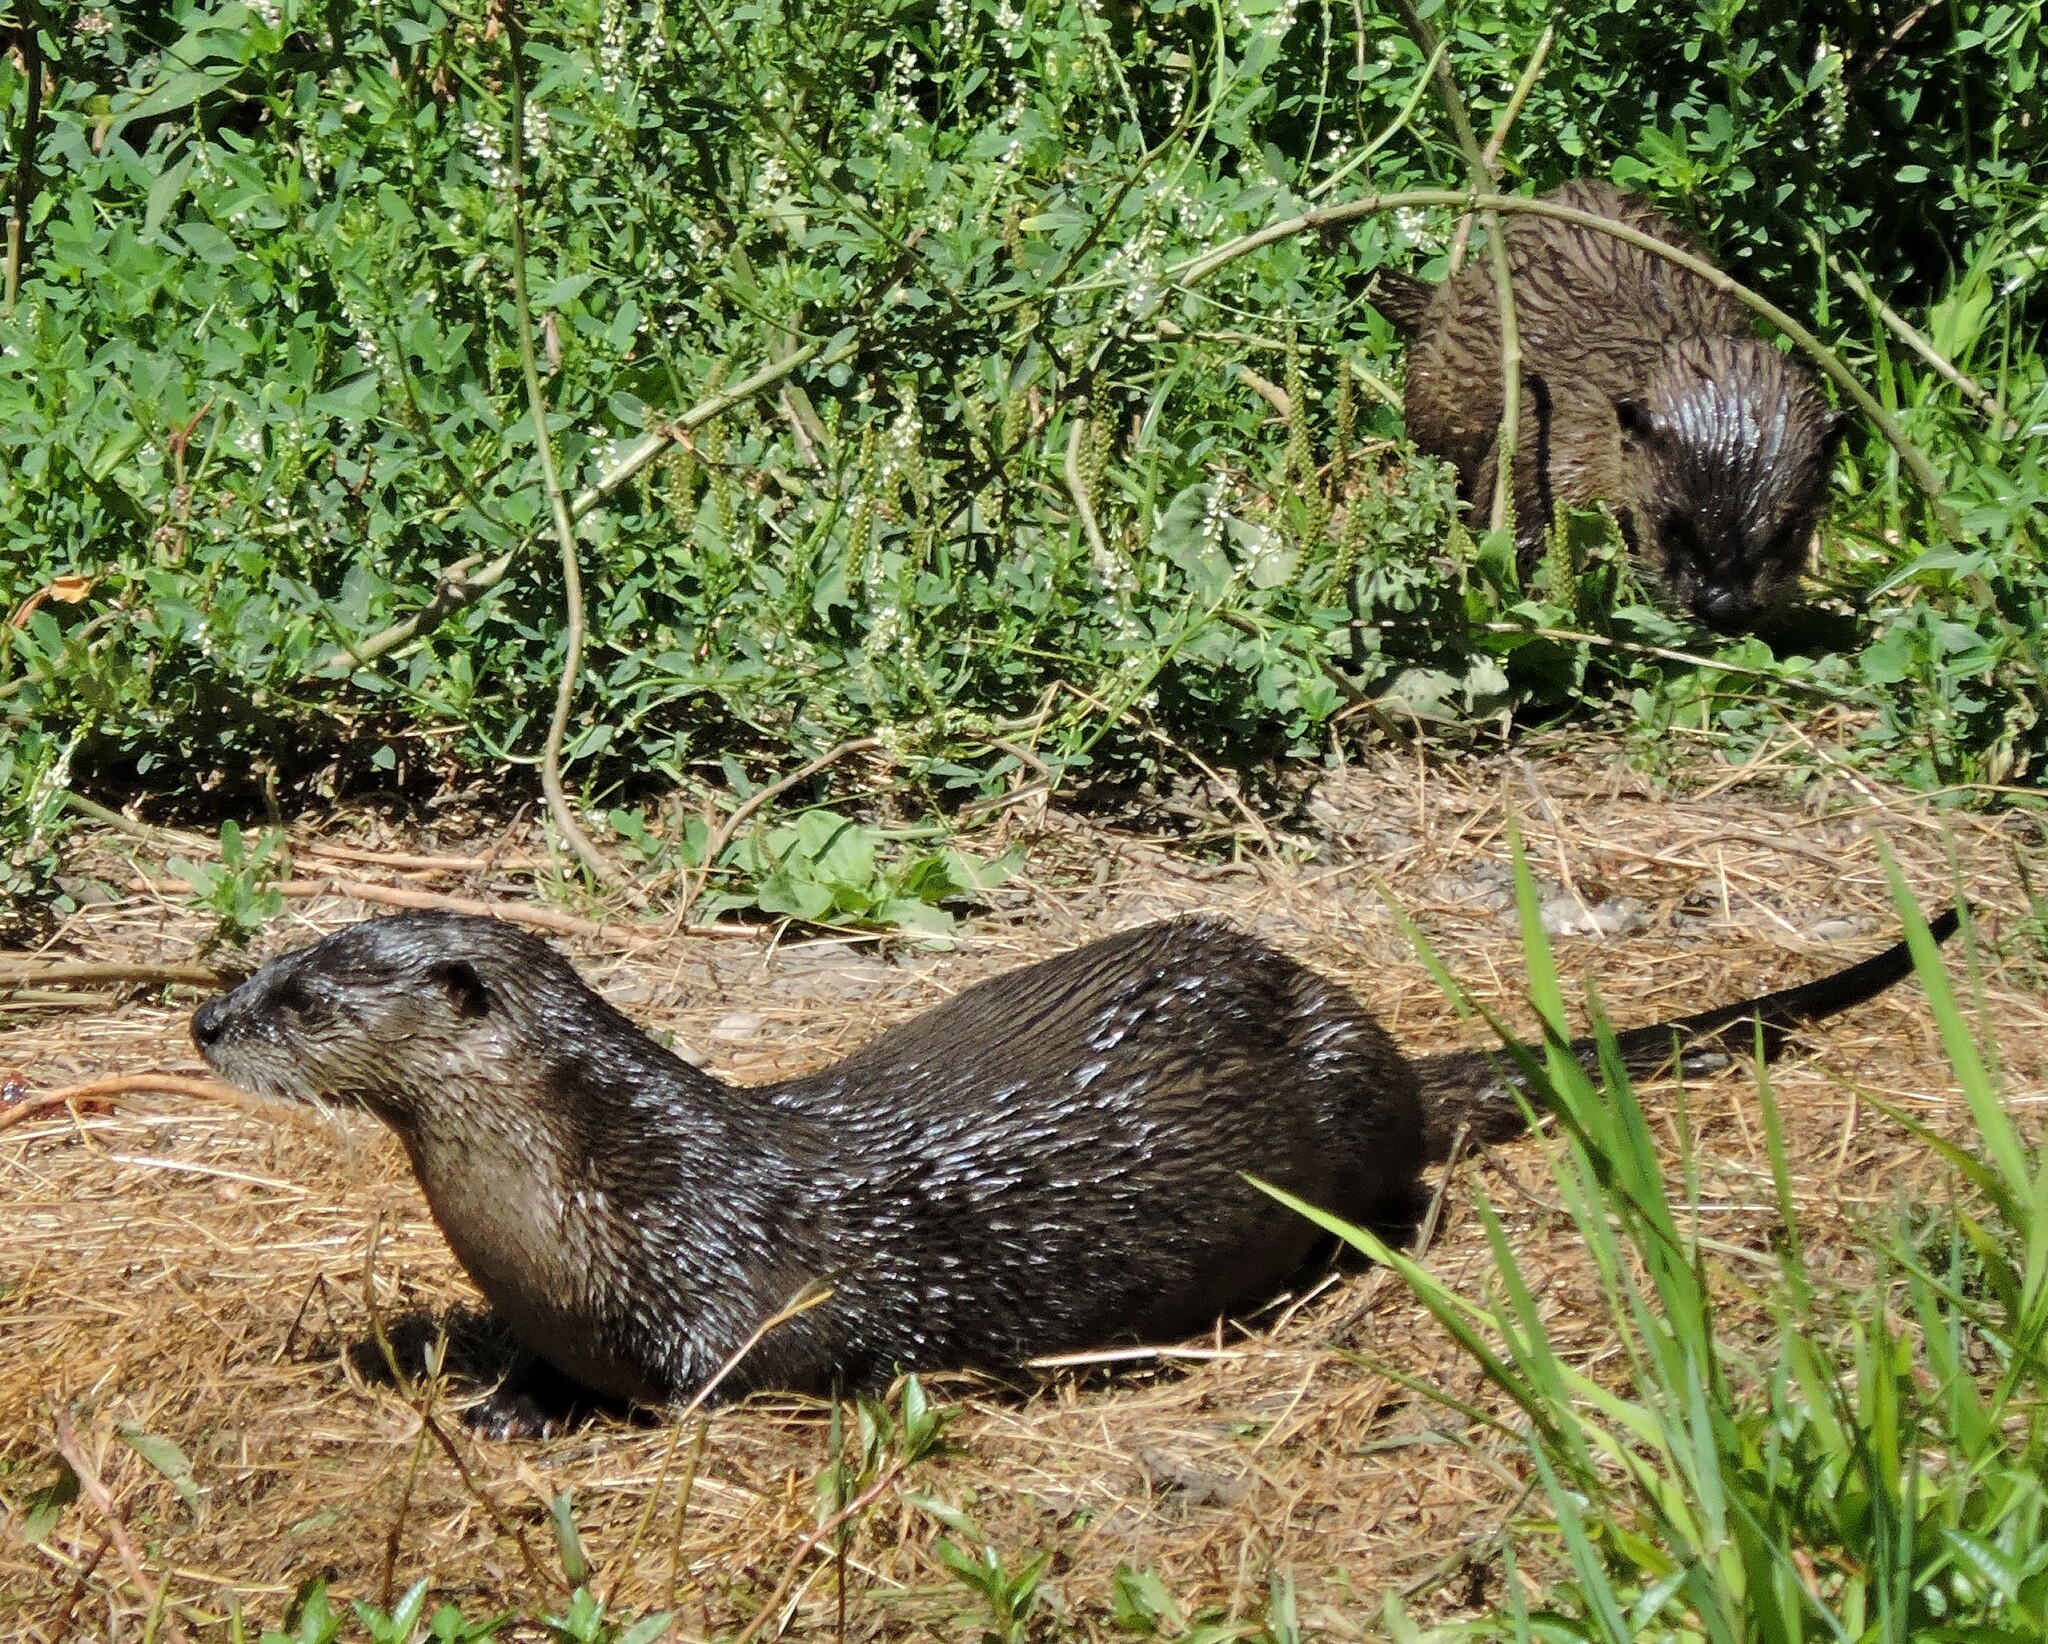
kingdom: Animalia
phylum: Chordata
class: Mammalia
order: Carnivora
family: Mustelidae
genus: Lontra
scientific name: Lontra canadensis
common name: North american river otter
